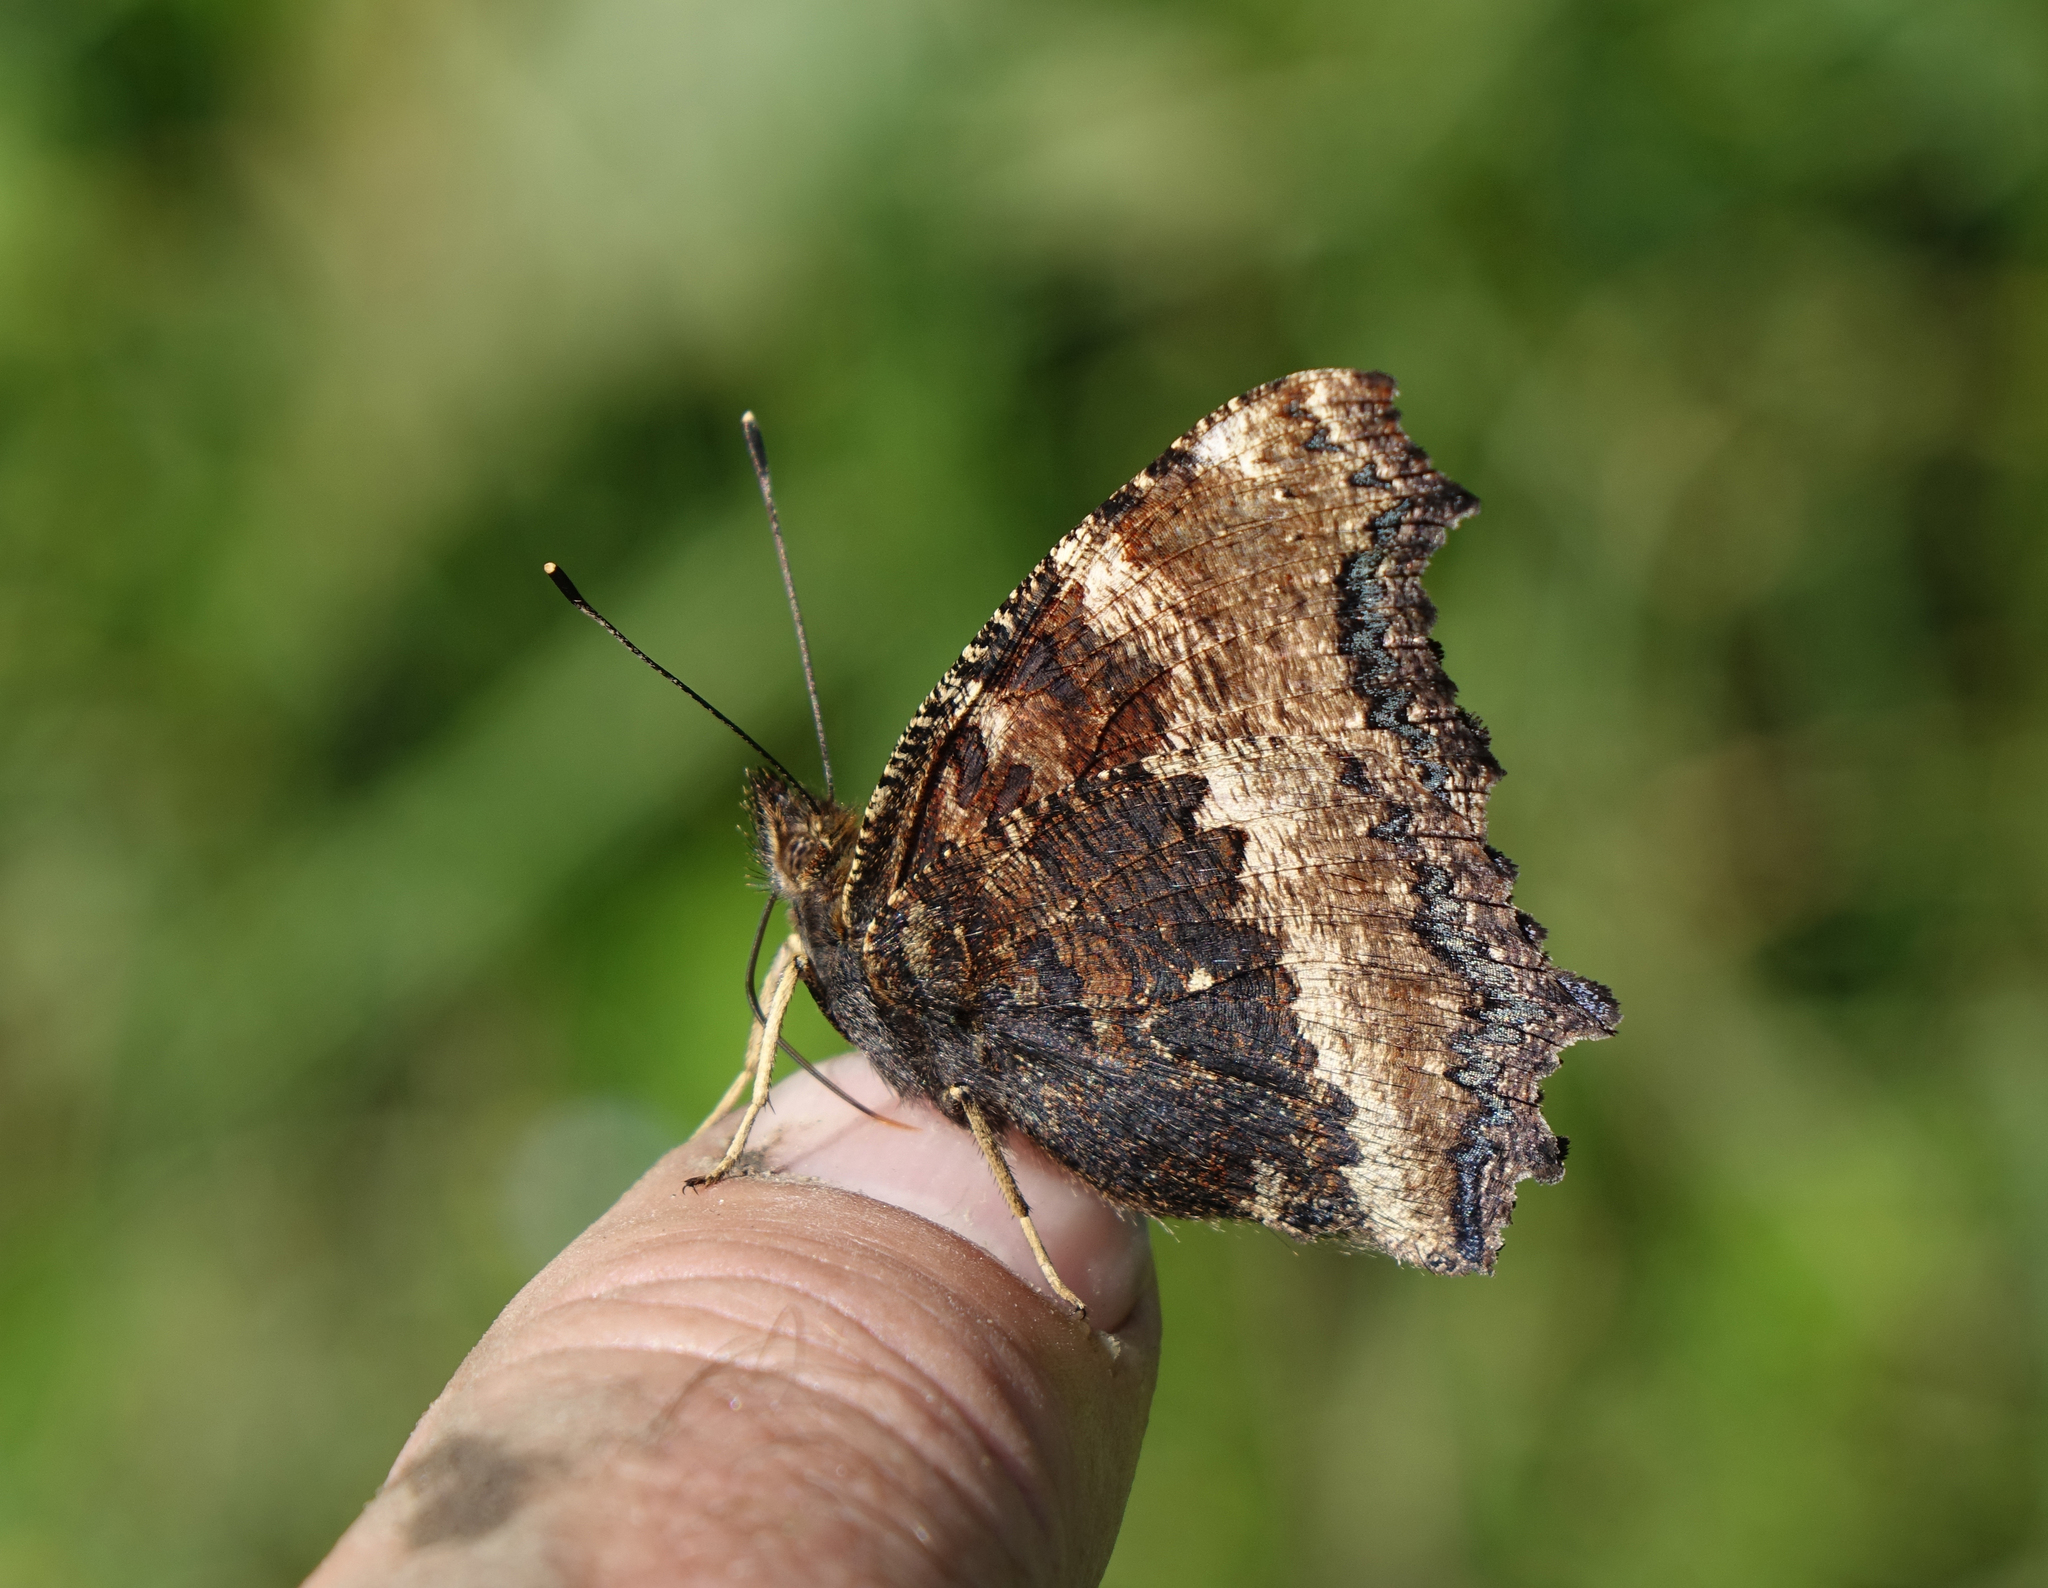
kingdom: Animalia
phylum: Arthropoda
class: Insecta
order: Lepidoptera
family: Nymphalidae
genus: Nymphalis
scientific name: Nymphalis xanthomelas
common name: Scarce tortoiseshell
